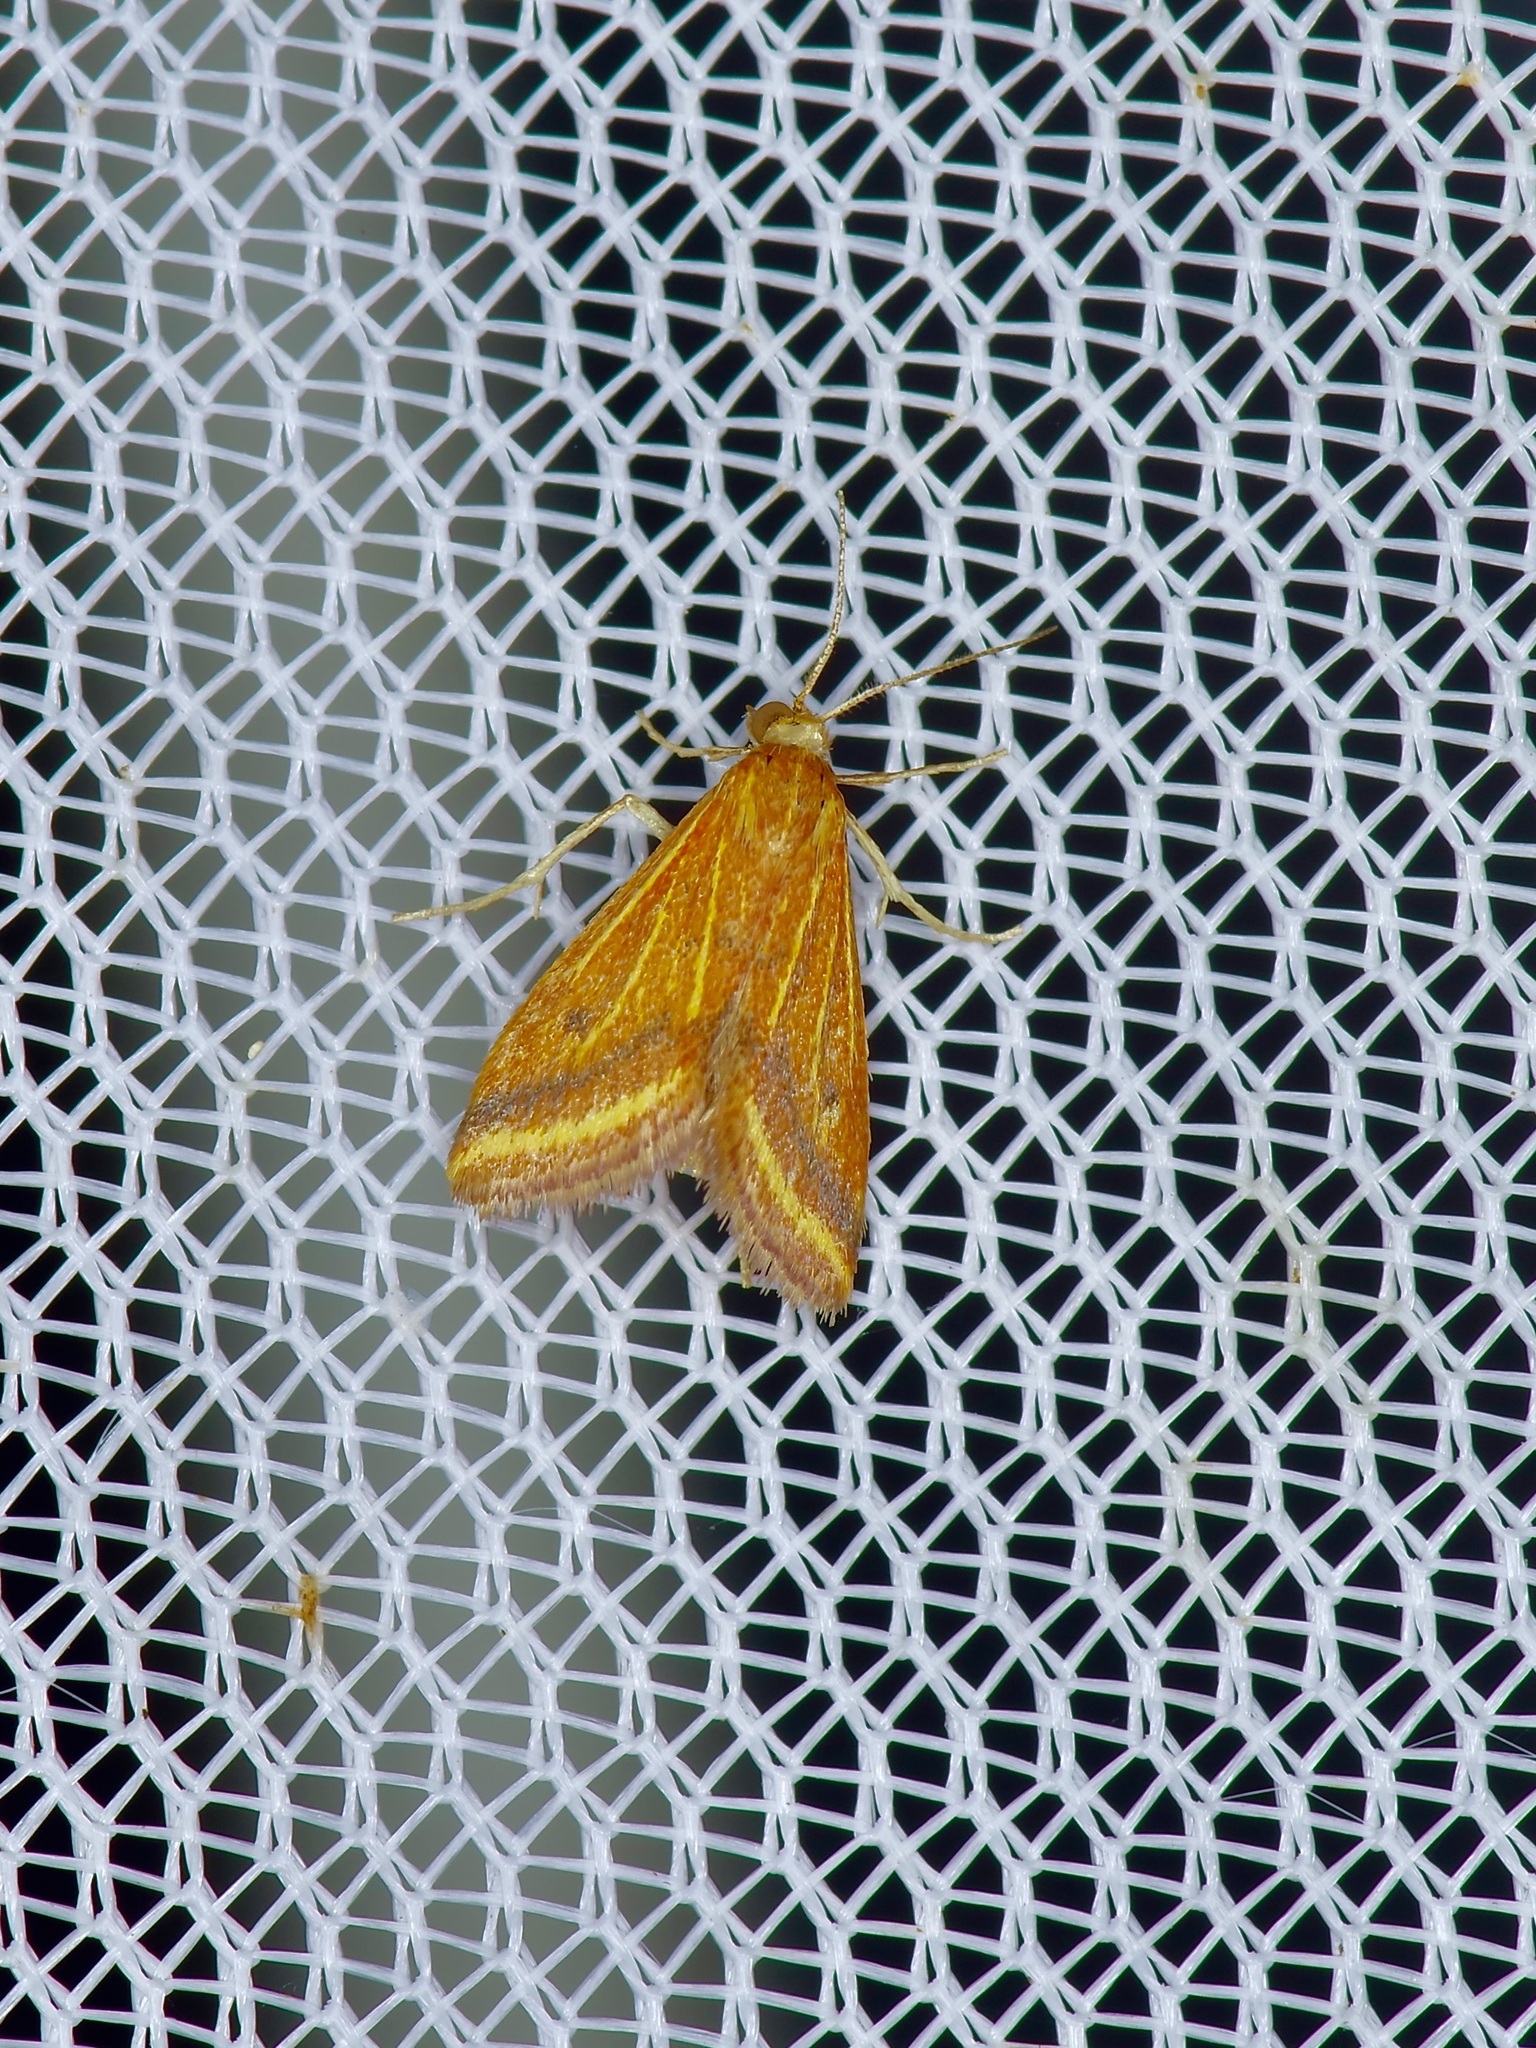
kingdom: Animalia
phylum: Arthropoda
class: Insecta
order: Lepidoptera
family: Crambidae
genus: Microtheoris
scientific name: Microtheoris ophionalis
